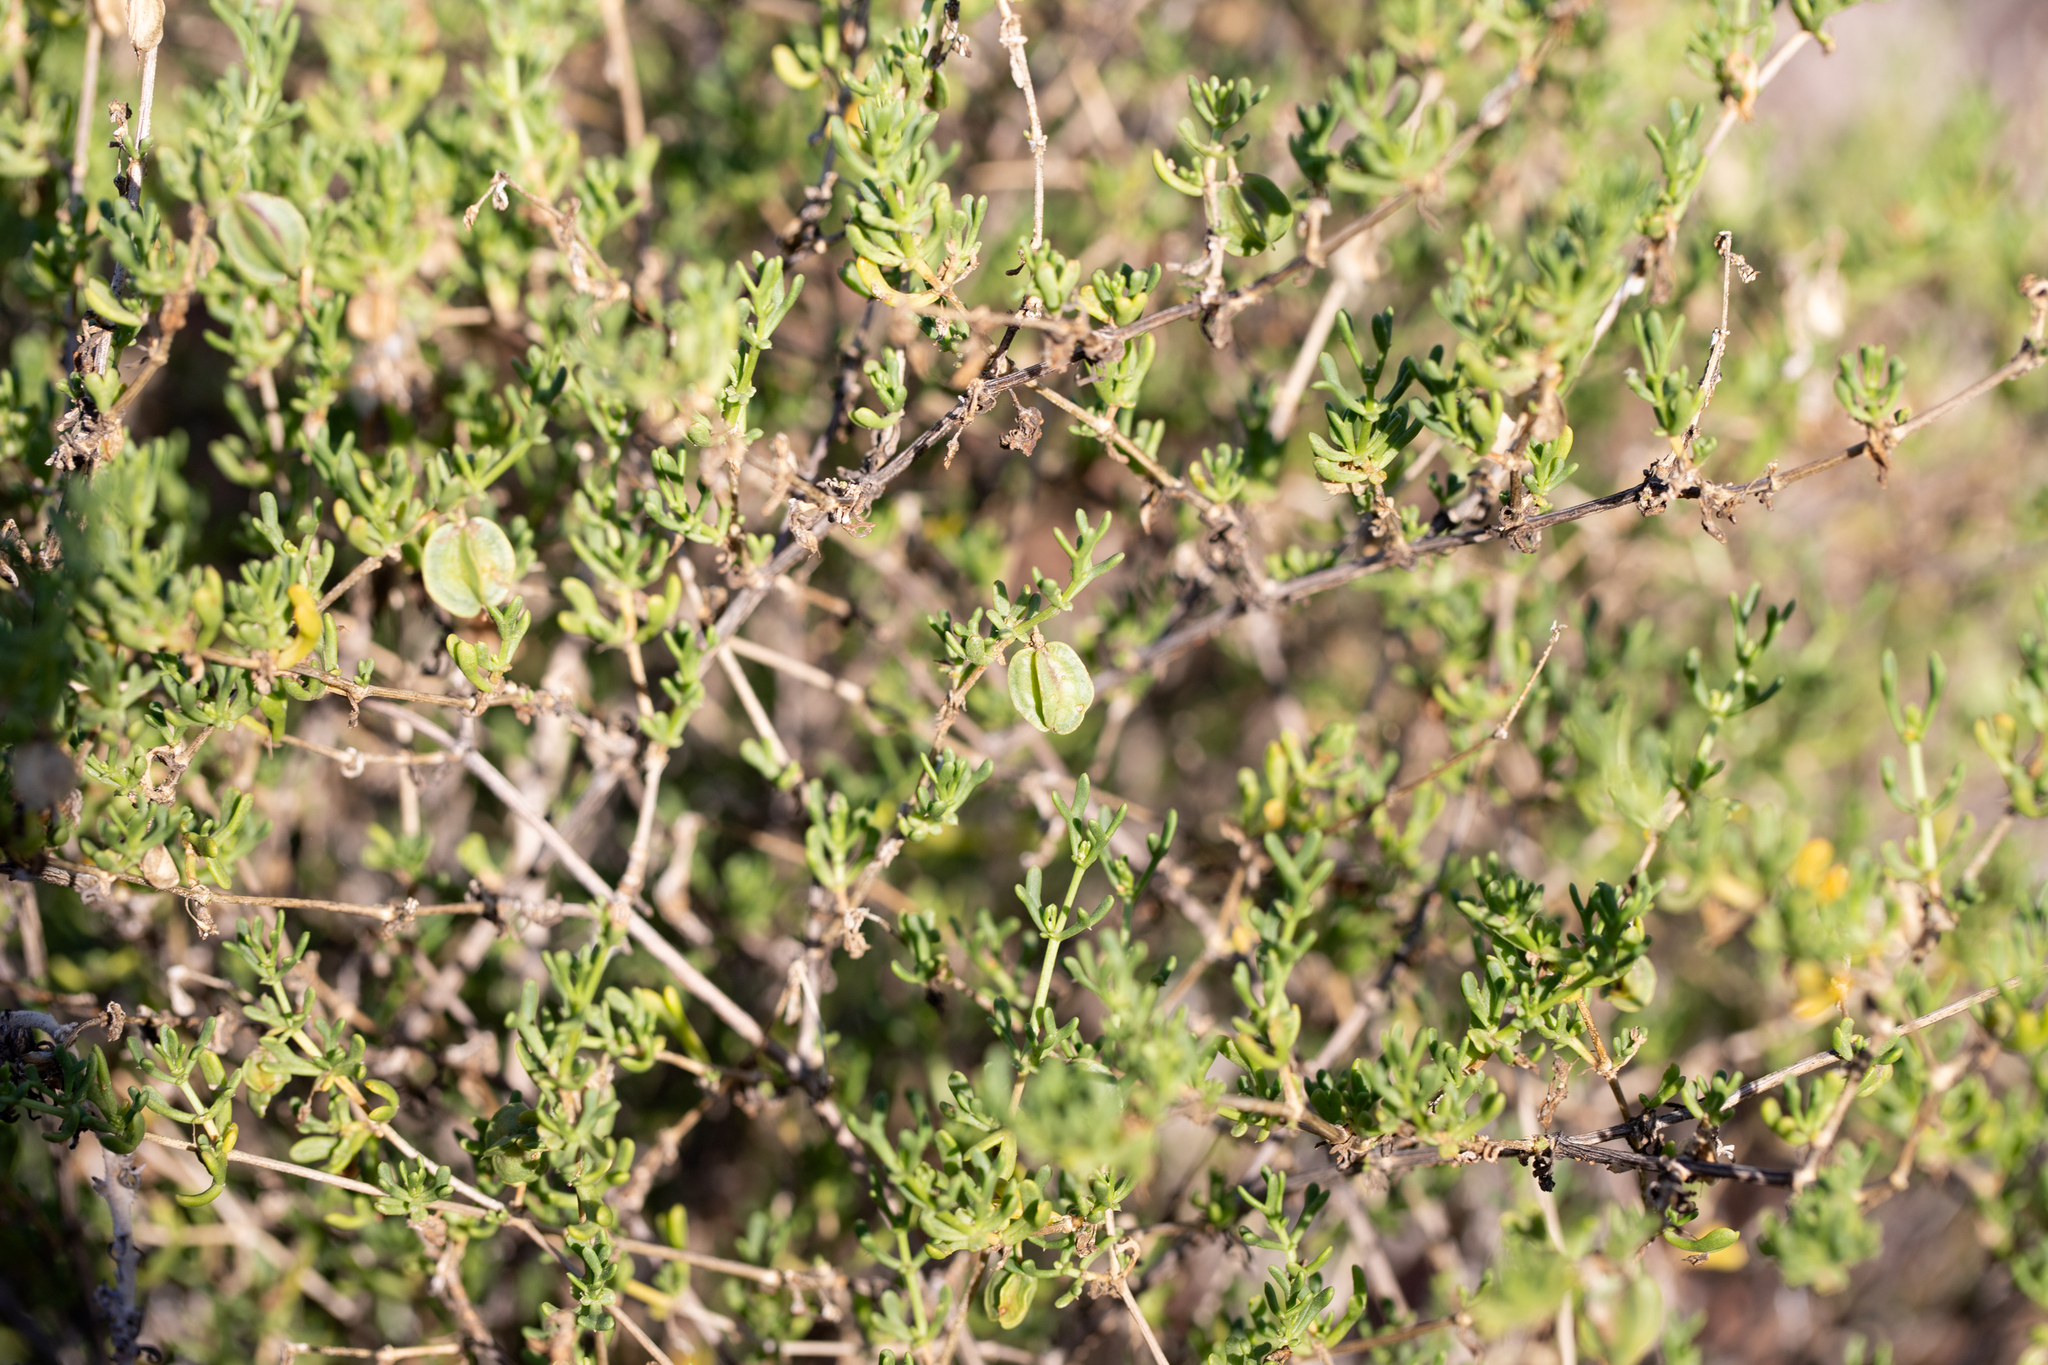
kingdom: Plantae
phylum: Tracheophyta
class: Magnoliopsida
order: Zygophyllales
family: Zygophyllaceae
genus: Roepera
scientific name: Roepera aurantiaca
